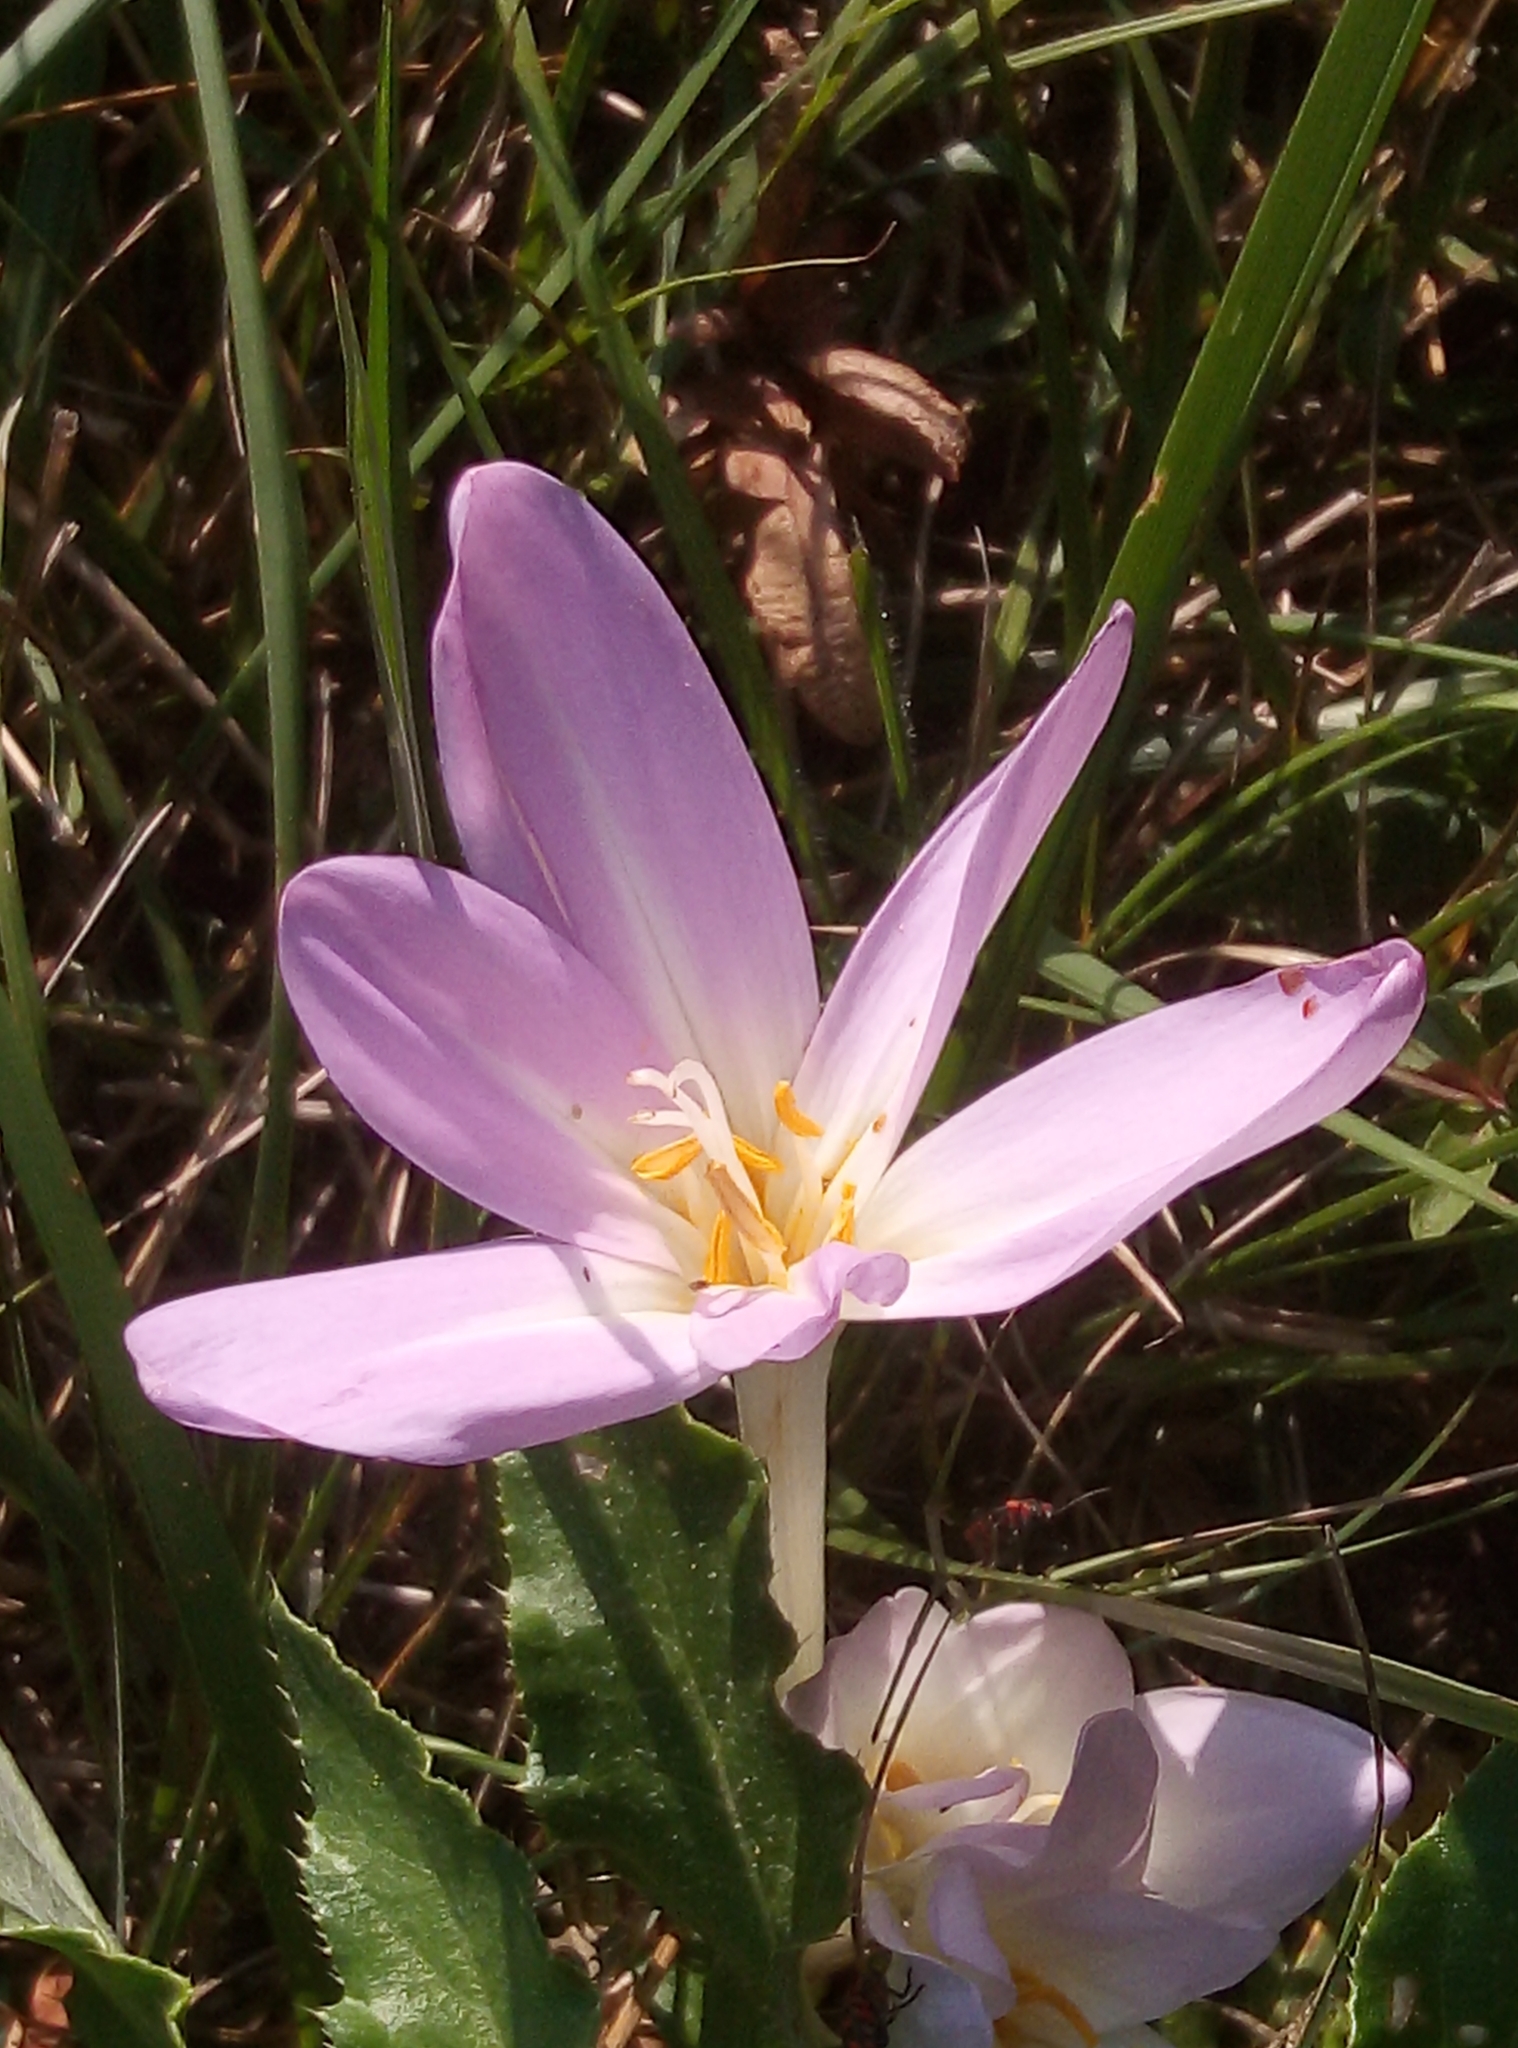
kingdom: Plantae
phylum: Tracheophyta
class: Liliopsida
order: Liliales
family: Colchicaceae
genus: Colchicum
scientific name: Colchicum autumnale
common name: Autumn crocus
